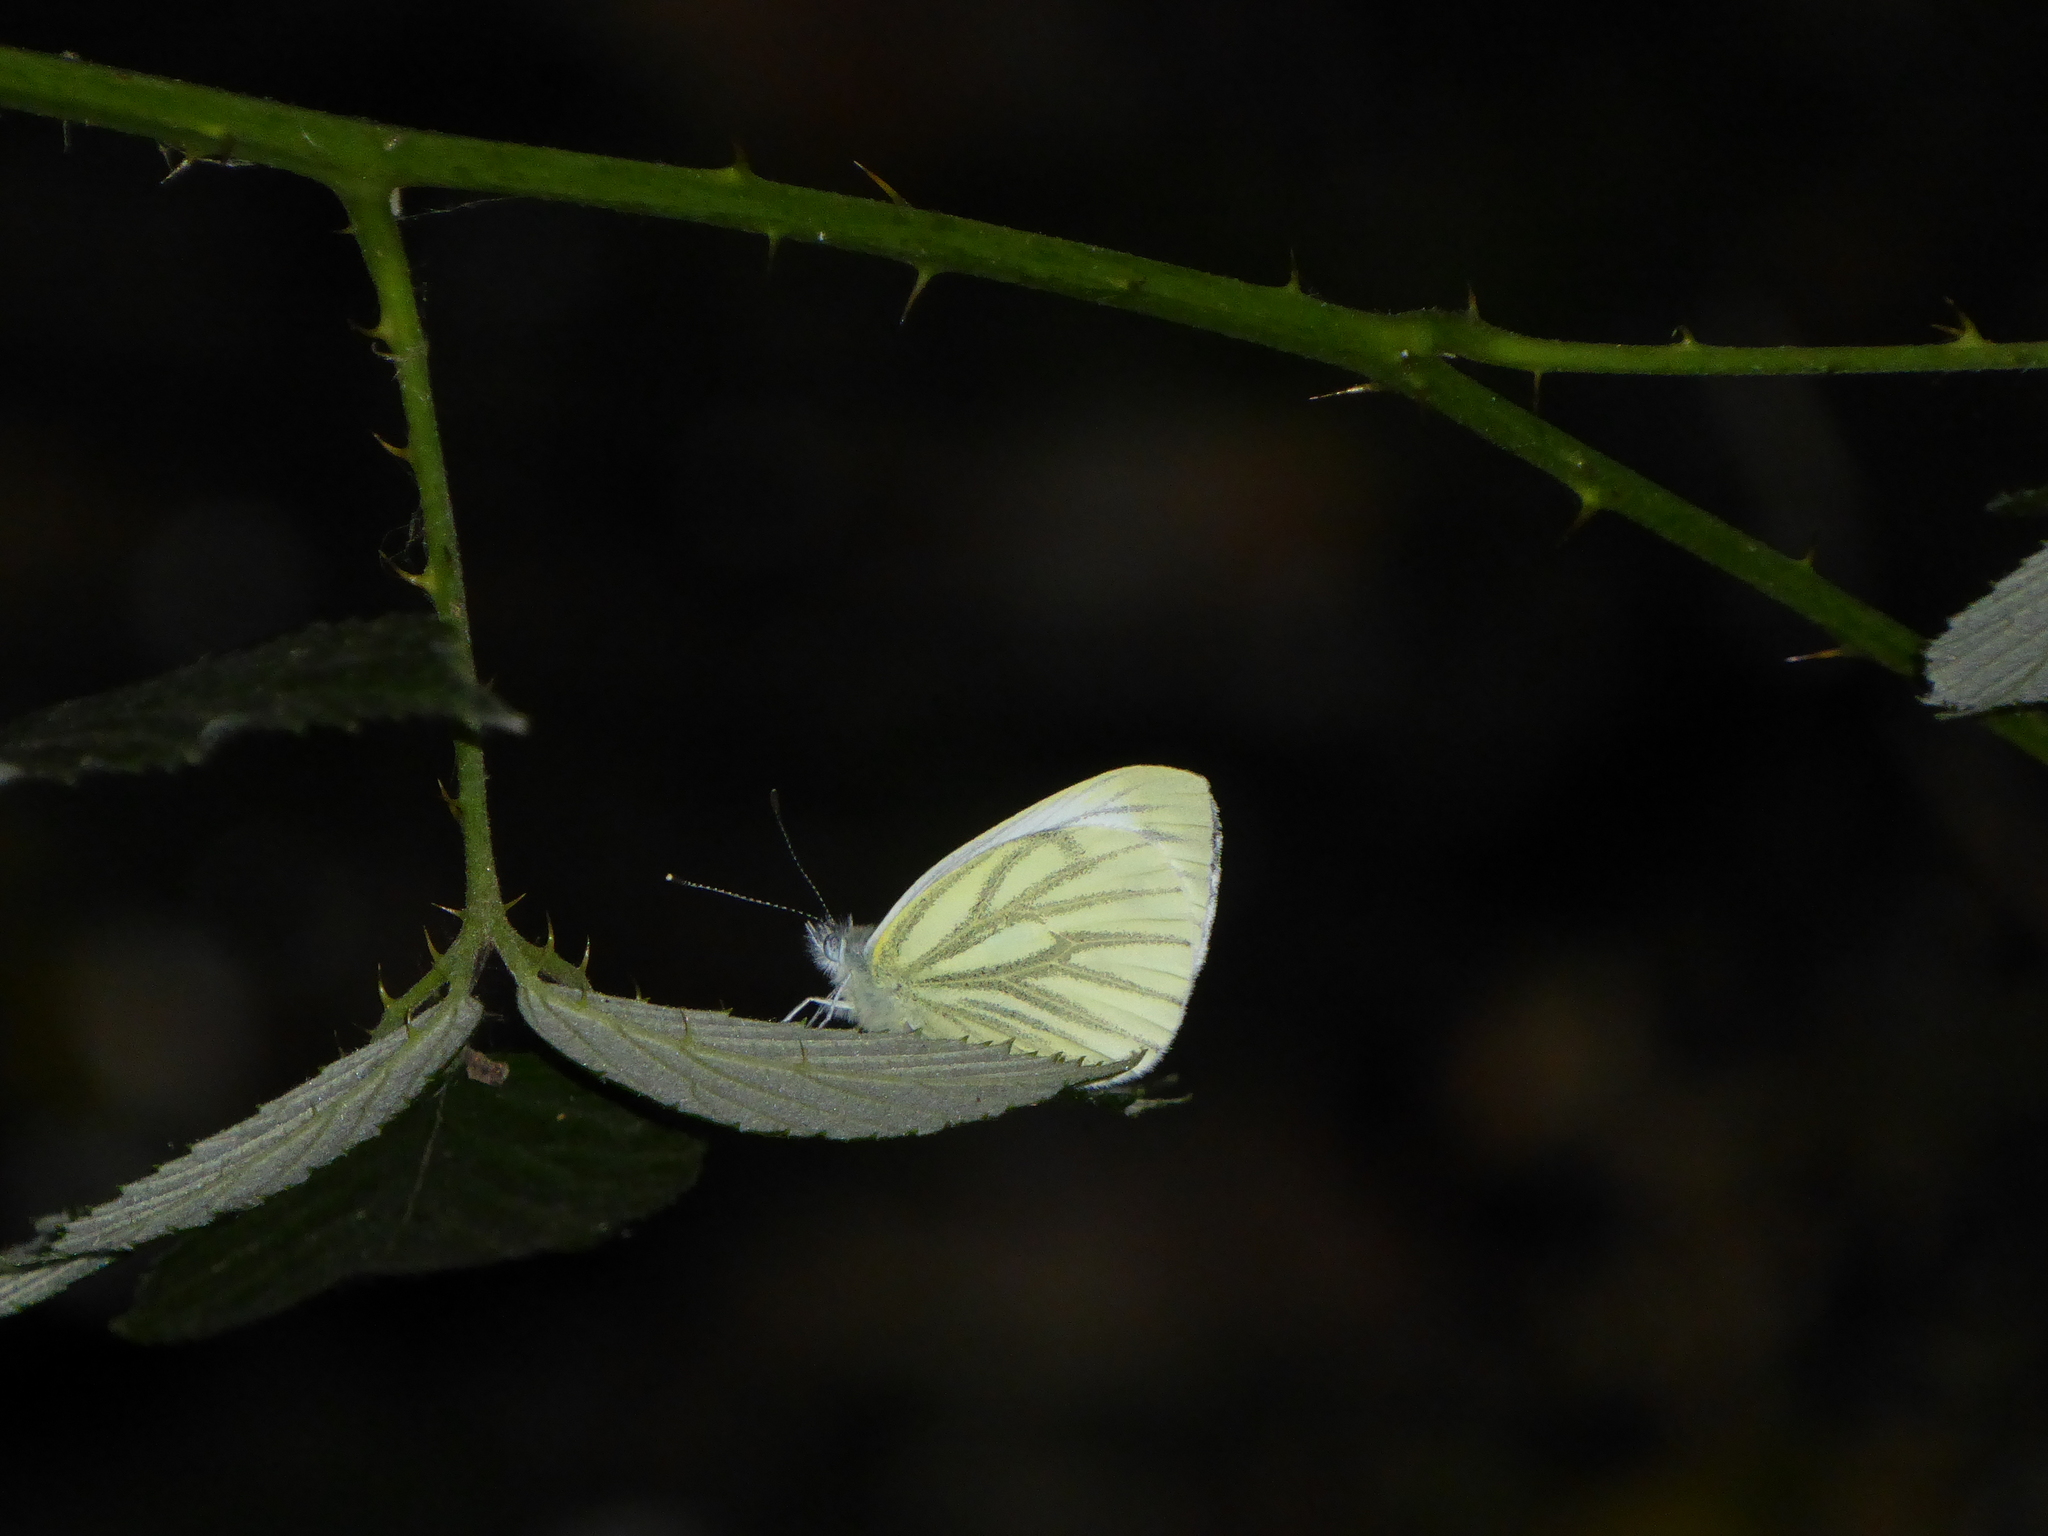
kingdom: Animalia
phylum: Arthropoda
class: Insecta
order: Lepidoptera
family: Pieridae
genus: Pieris
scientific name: Pieris napi
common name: Green-veined white
